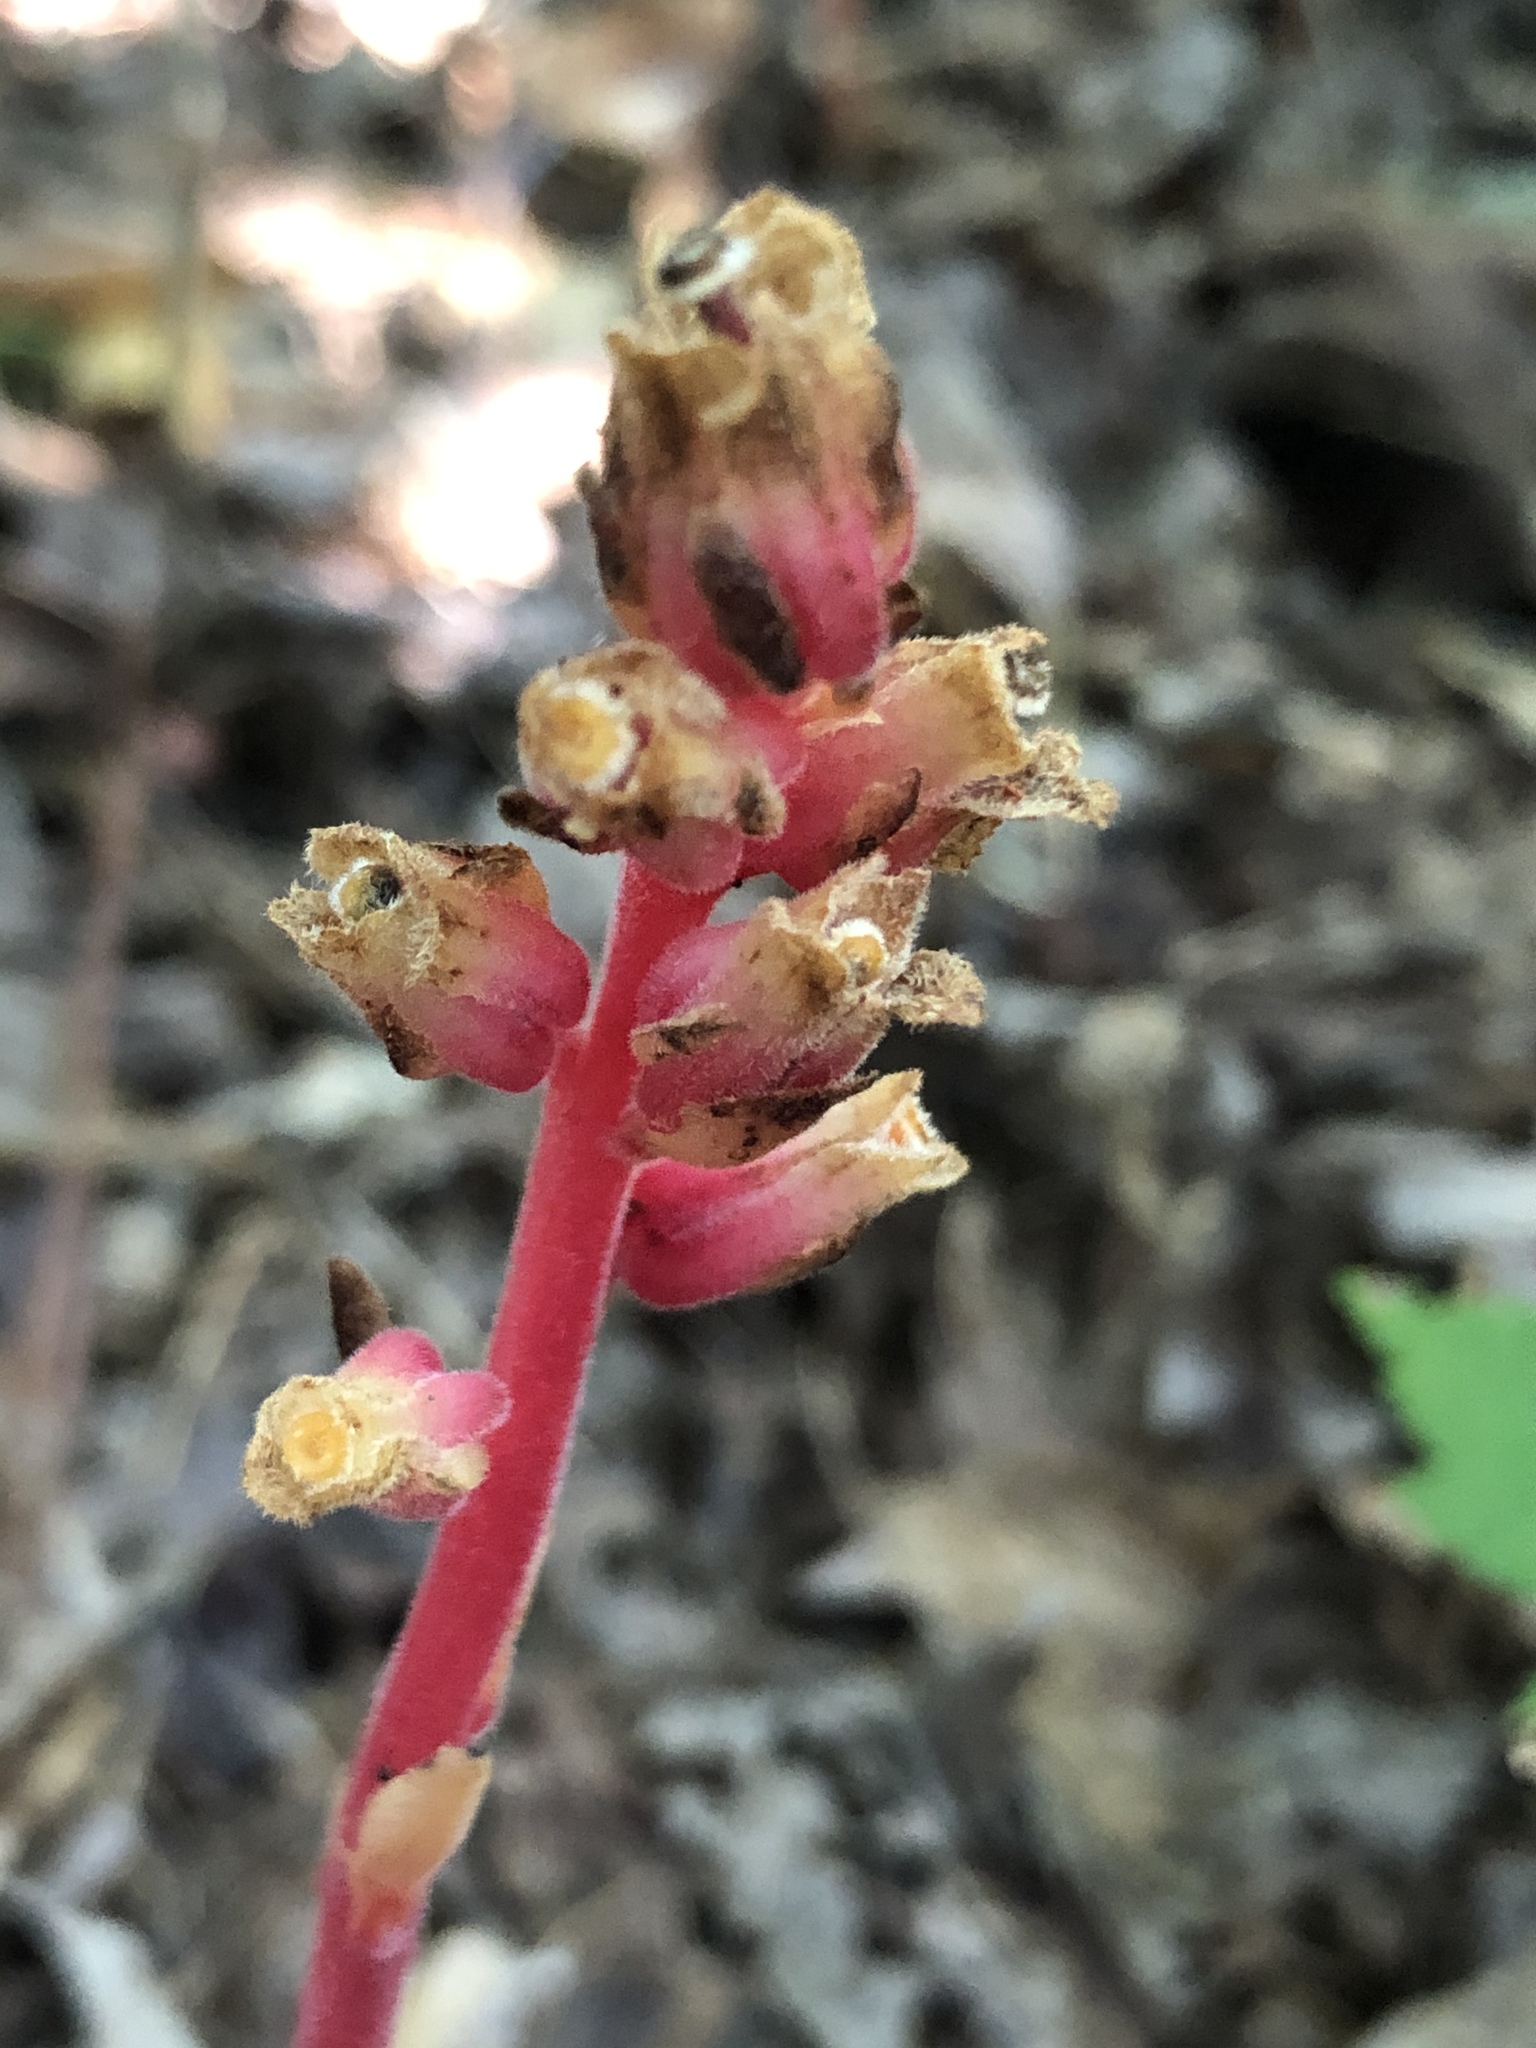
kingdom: Plantae
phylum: Tracheophyta
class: Magnoliopsida
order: Ericales
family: Ericaceae
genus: Hypopitys
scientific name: Hypopitys monotropa
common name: Yellow bird's-nest
